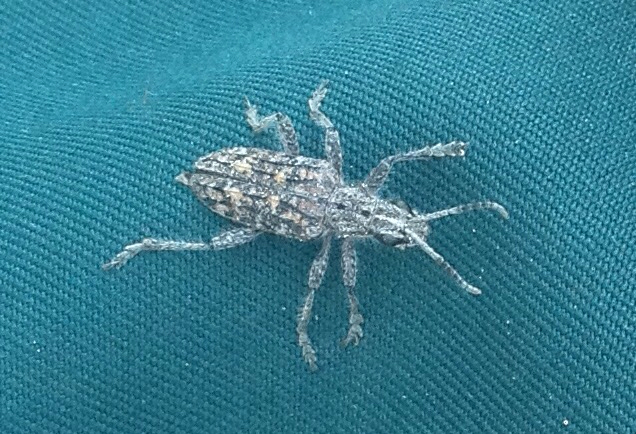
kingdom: Animalia
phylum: Arthropoda
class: Insecta
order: Coleoptera
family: Cerambycidae
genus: Rhagium
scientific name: Rhagium inquisitor
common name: Ribbed pine borer
